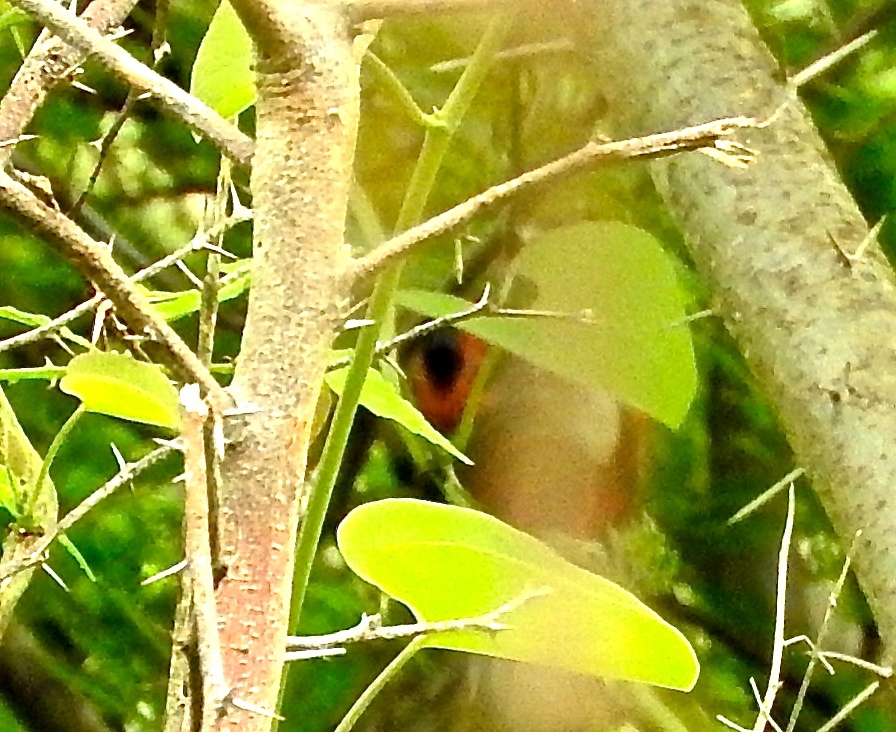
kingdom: Animalia
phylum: Chordata
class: Aves
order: Galliformes
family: Cracidae
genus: Ortalis
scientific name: Ortalis wagleri
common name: Rufous-bellied chachalaca
